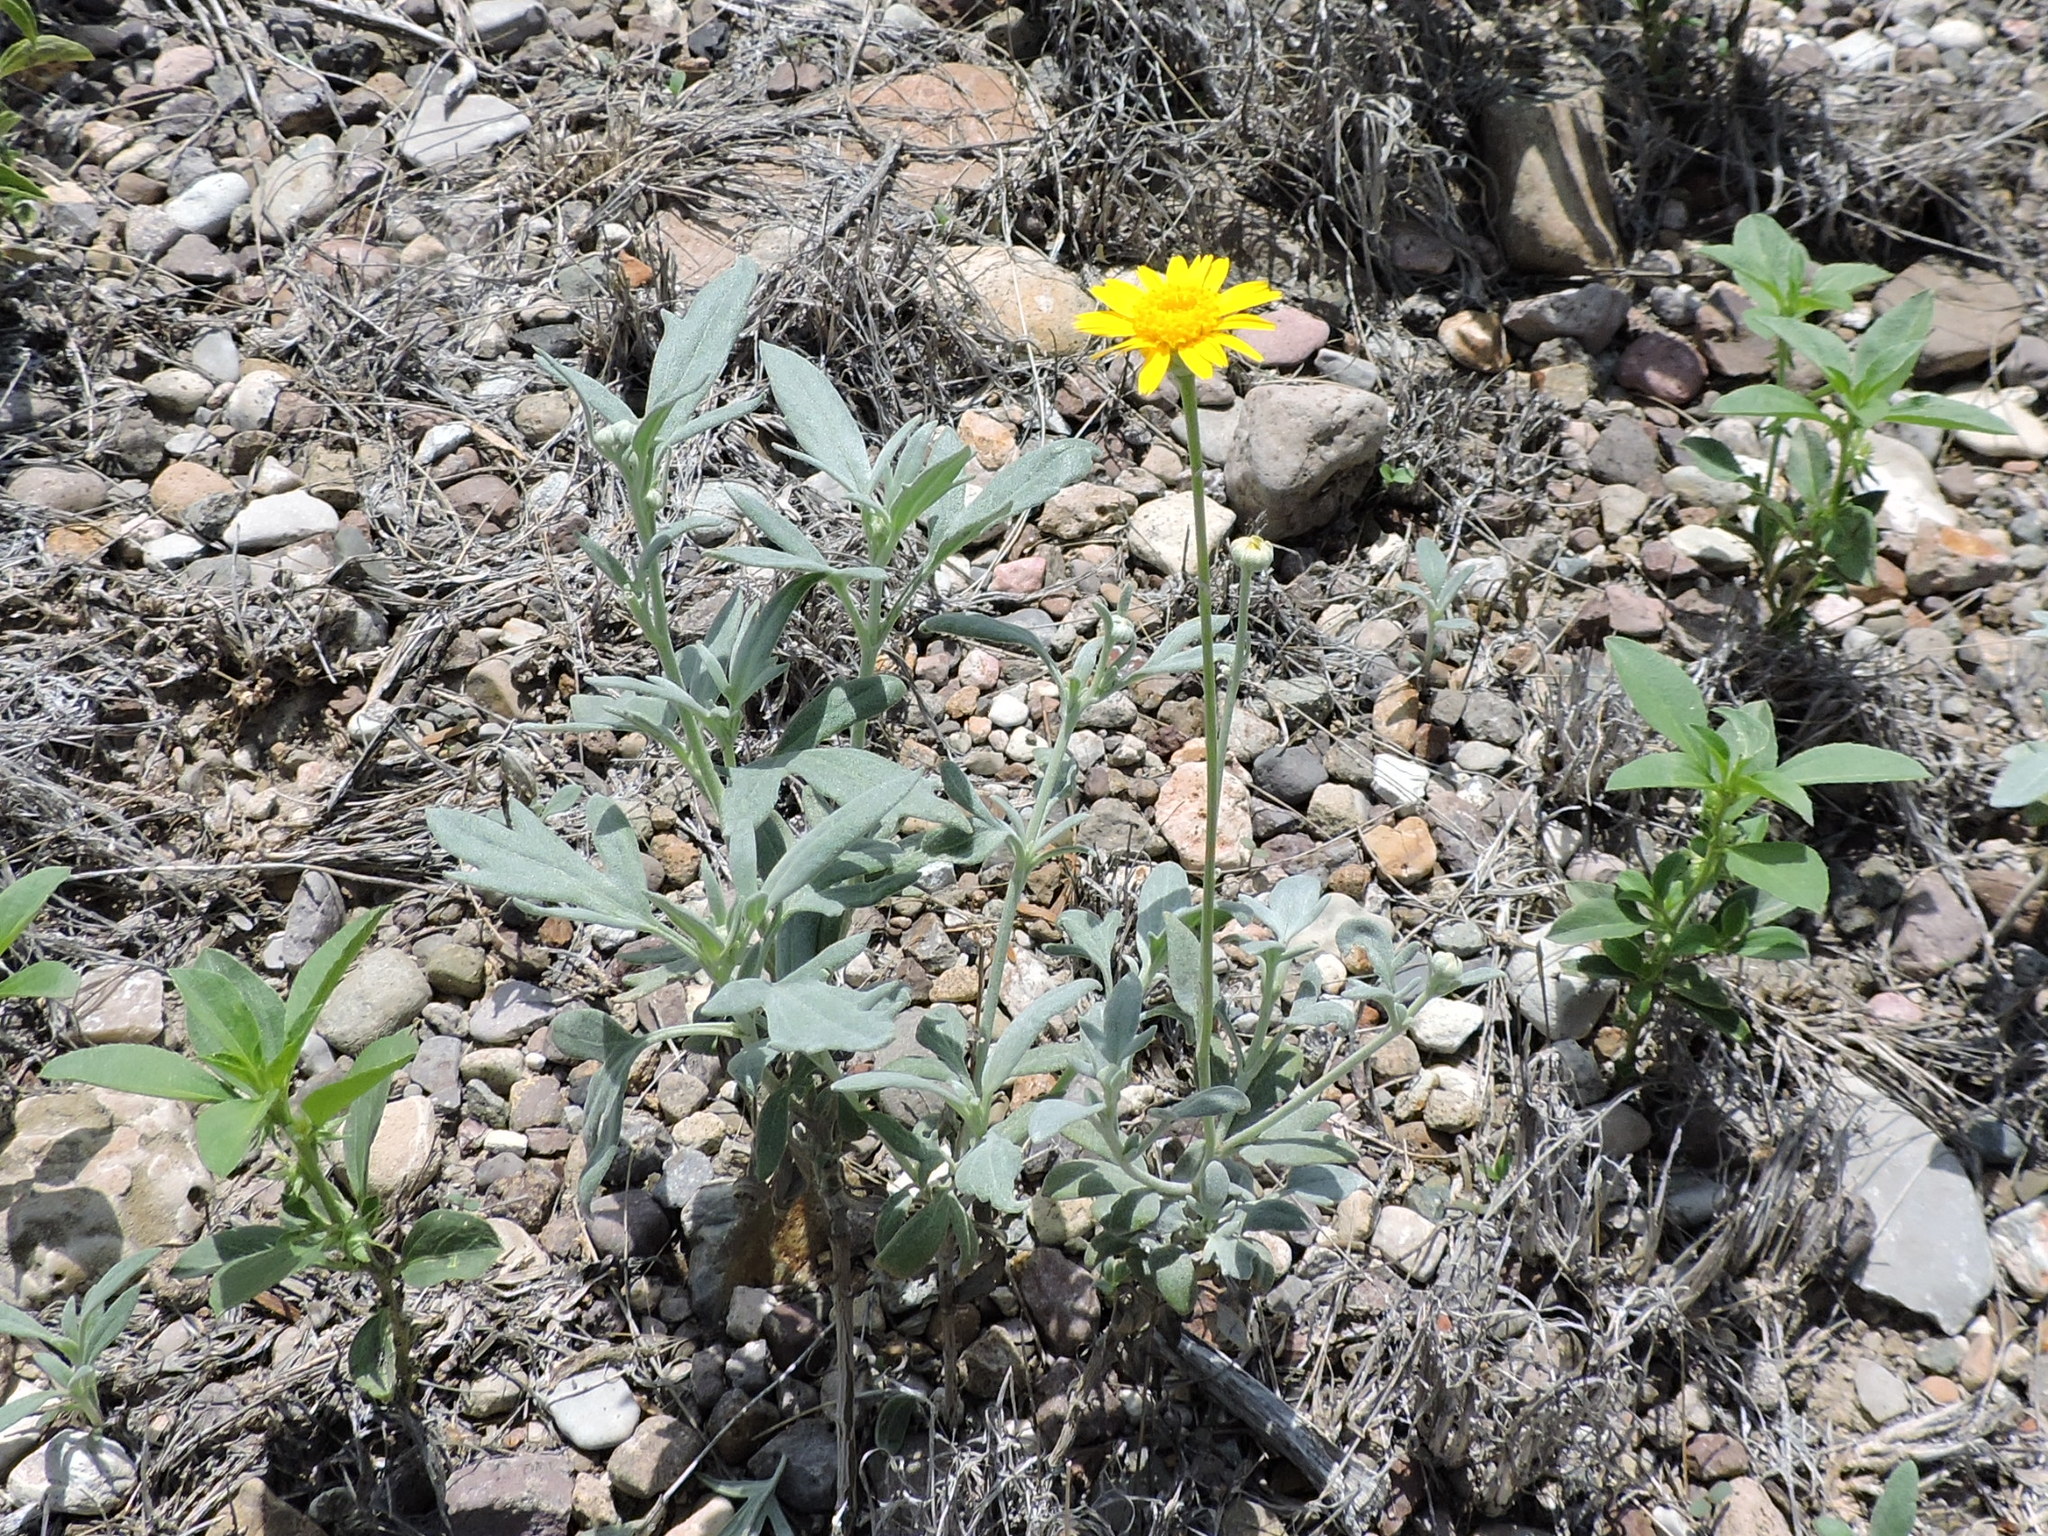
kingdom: Plantae
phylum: Tracheophyta
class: Magnoliopsida
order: Asterales
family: Asteraceae
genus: Picradeniopsis
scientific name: Picradeniopsis absinthifolia
